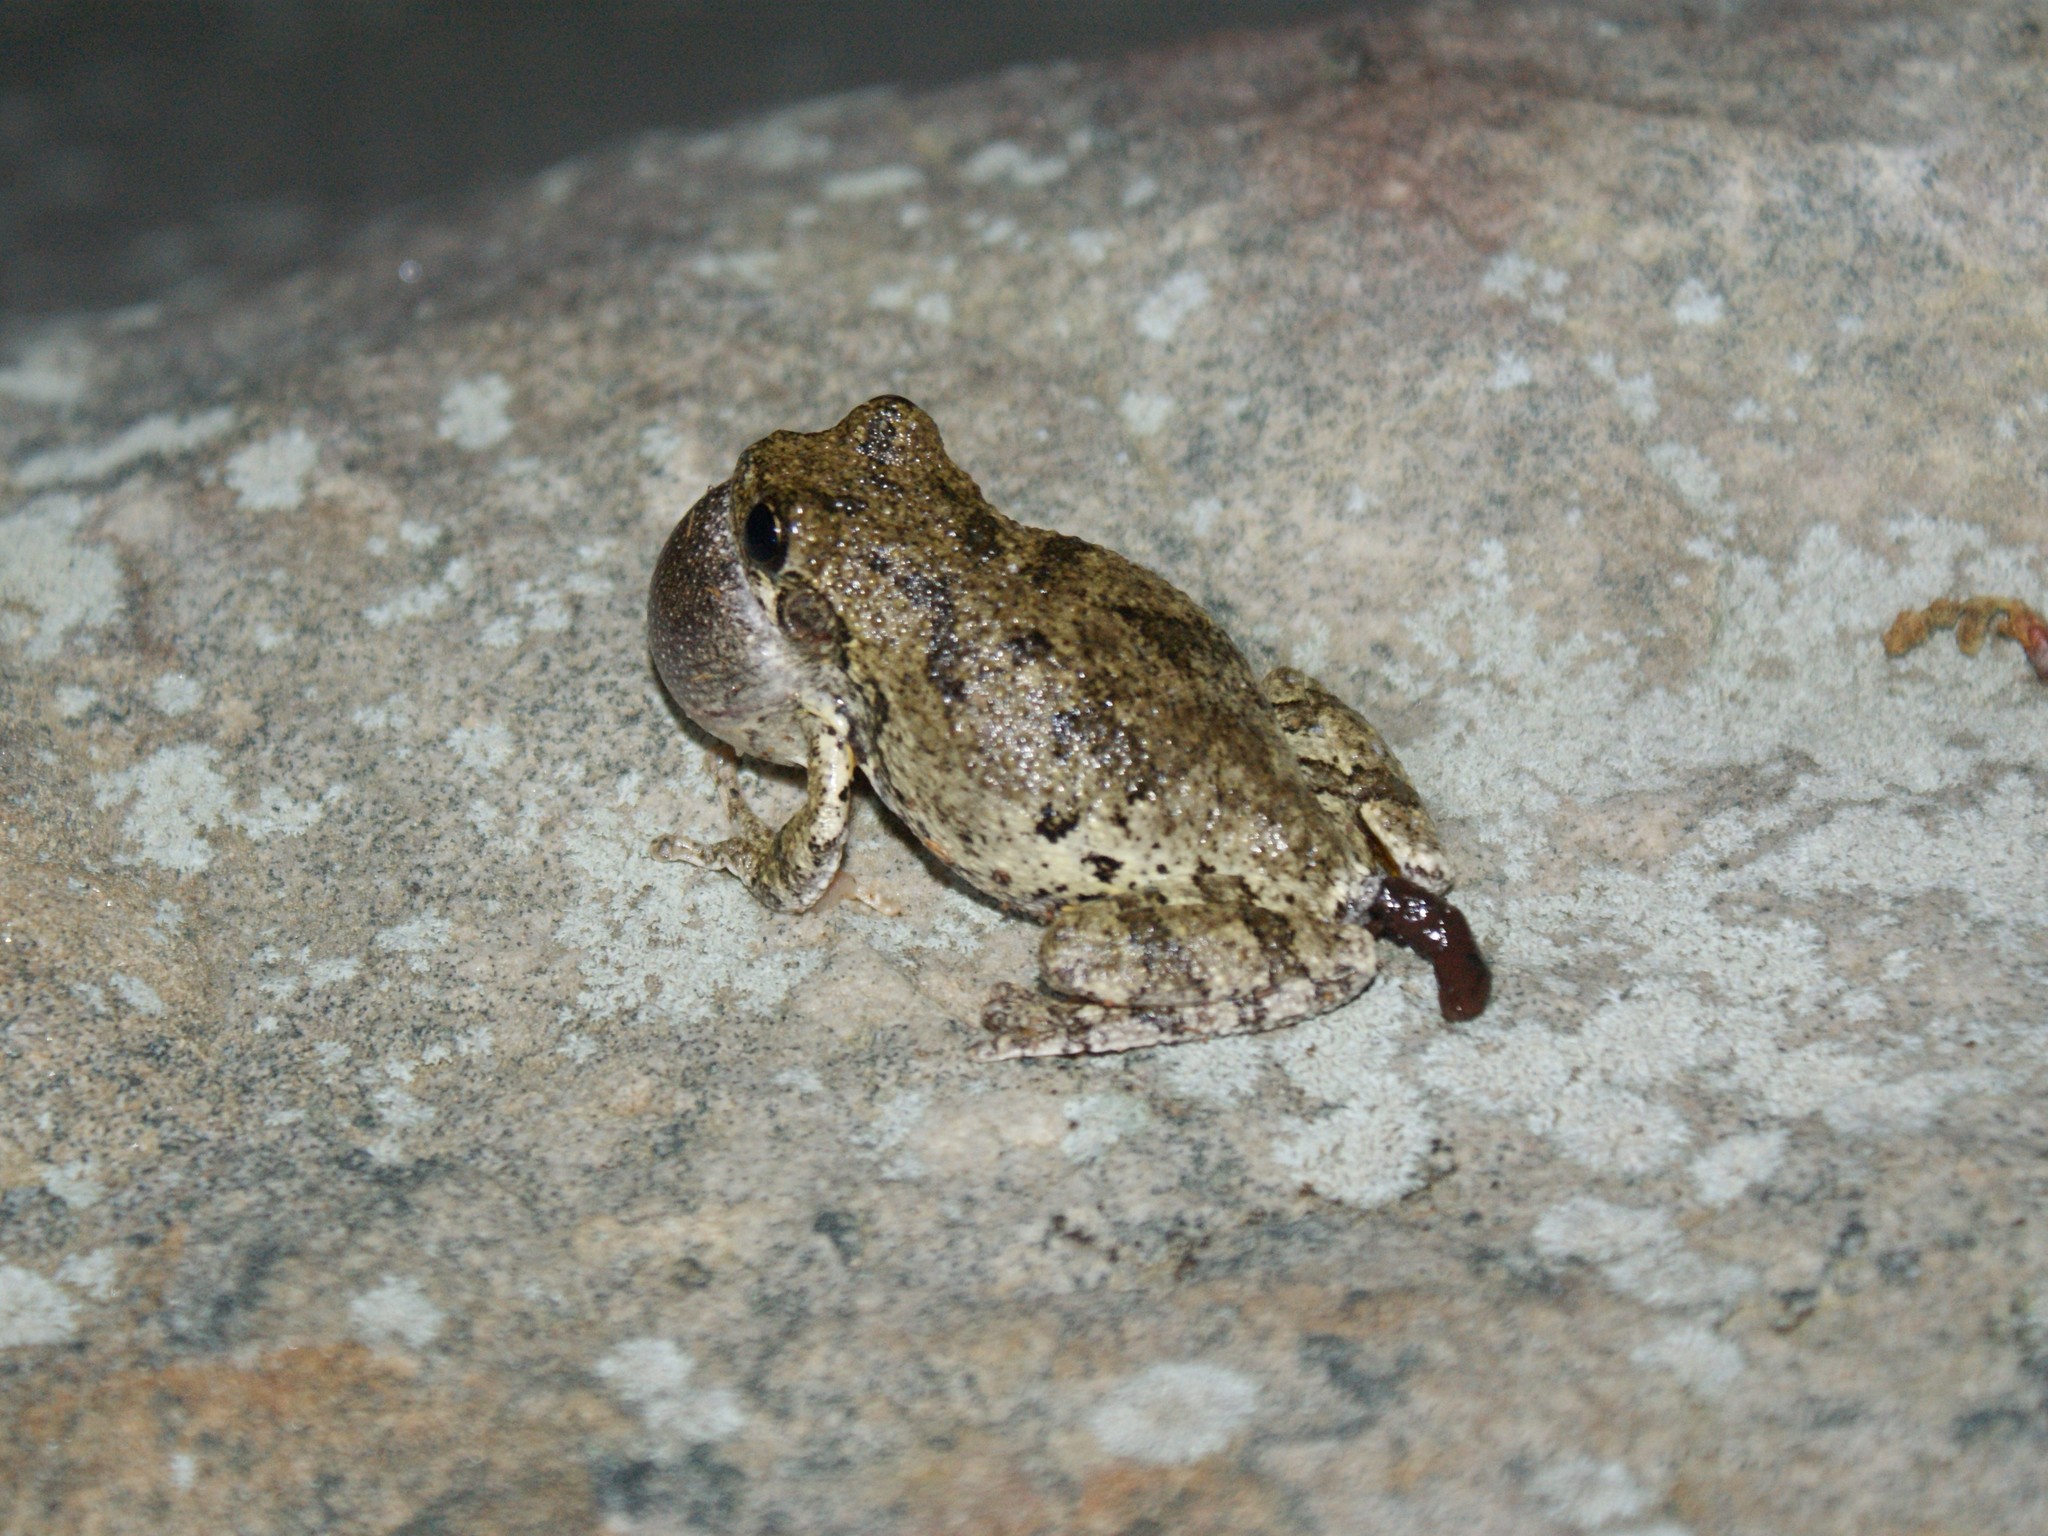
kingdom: Animalia
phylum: Chordata
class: Amphibia
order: Anura
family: Hylidae
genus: Dryophytes
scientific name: Dryophytes chrysoscelis
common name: Cope's gray treefrog
